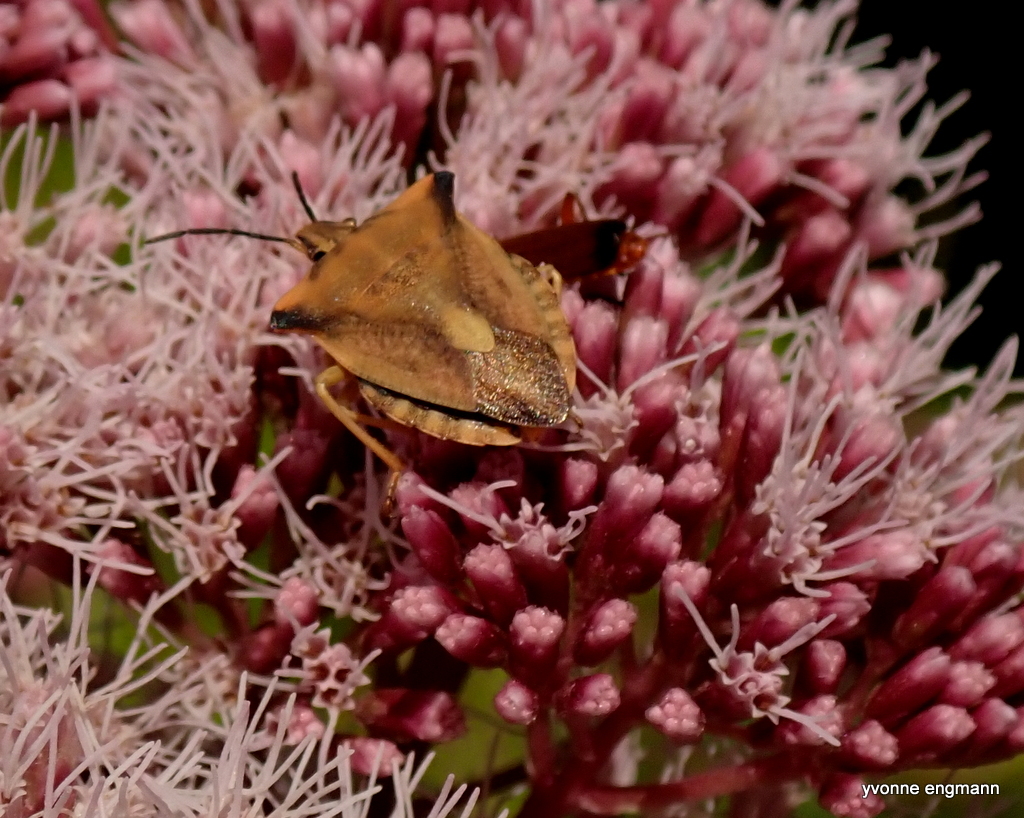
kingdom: Animalia
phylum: Arthropoda
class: Insecta
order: Hemiptera
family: Pentatomidae
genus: Carpocoris
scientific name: Carpocoris fuscispinus
